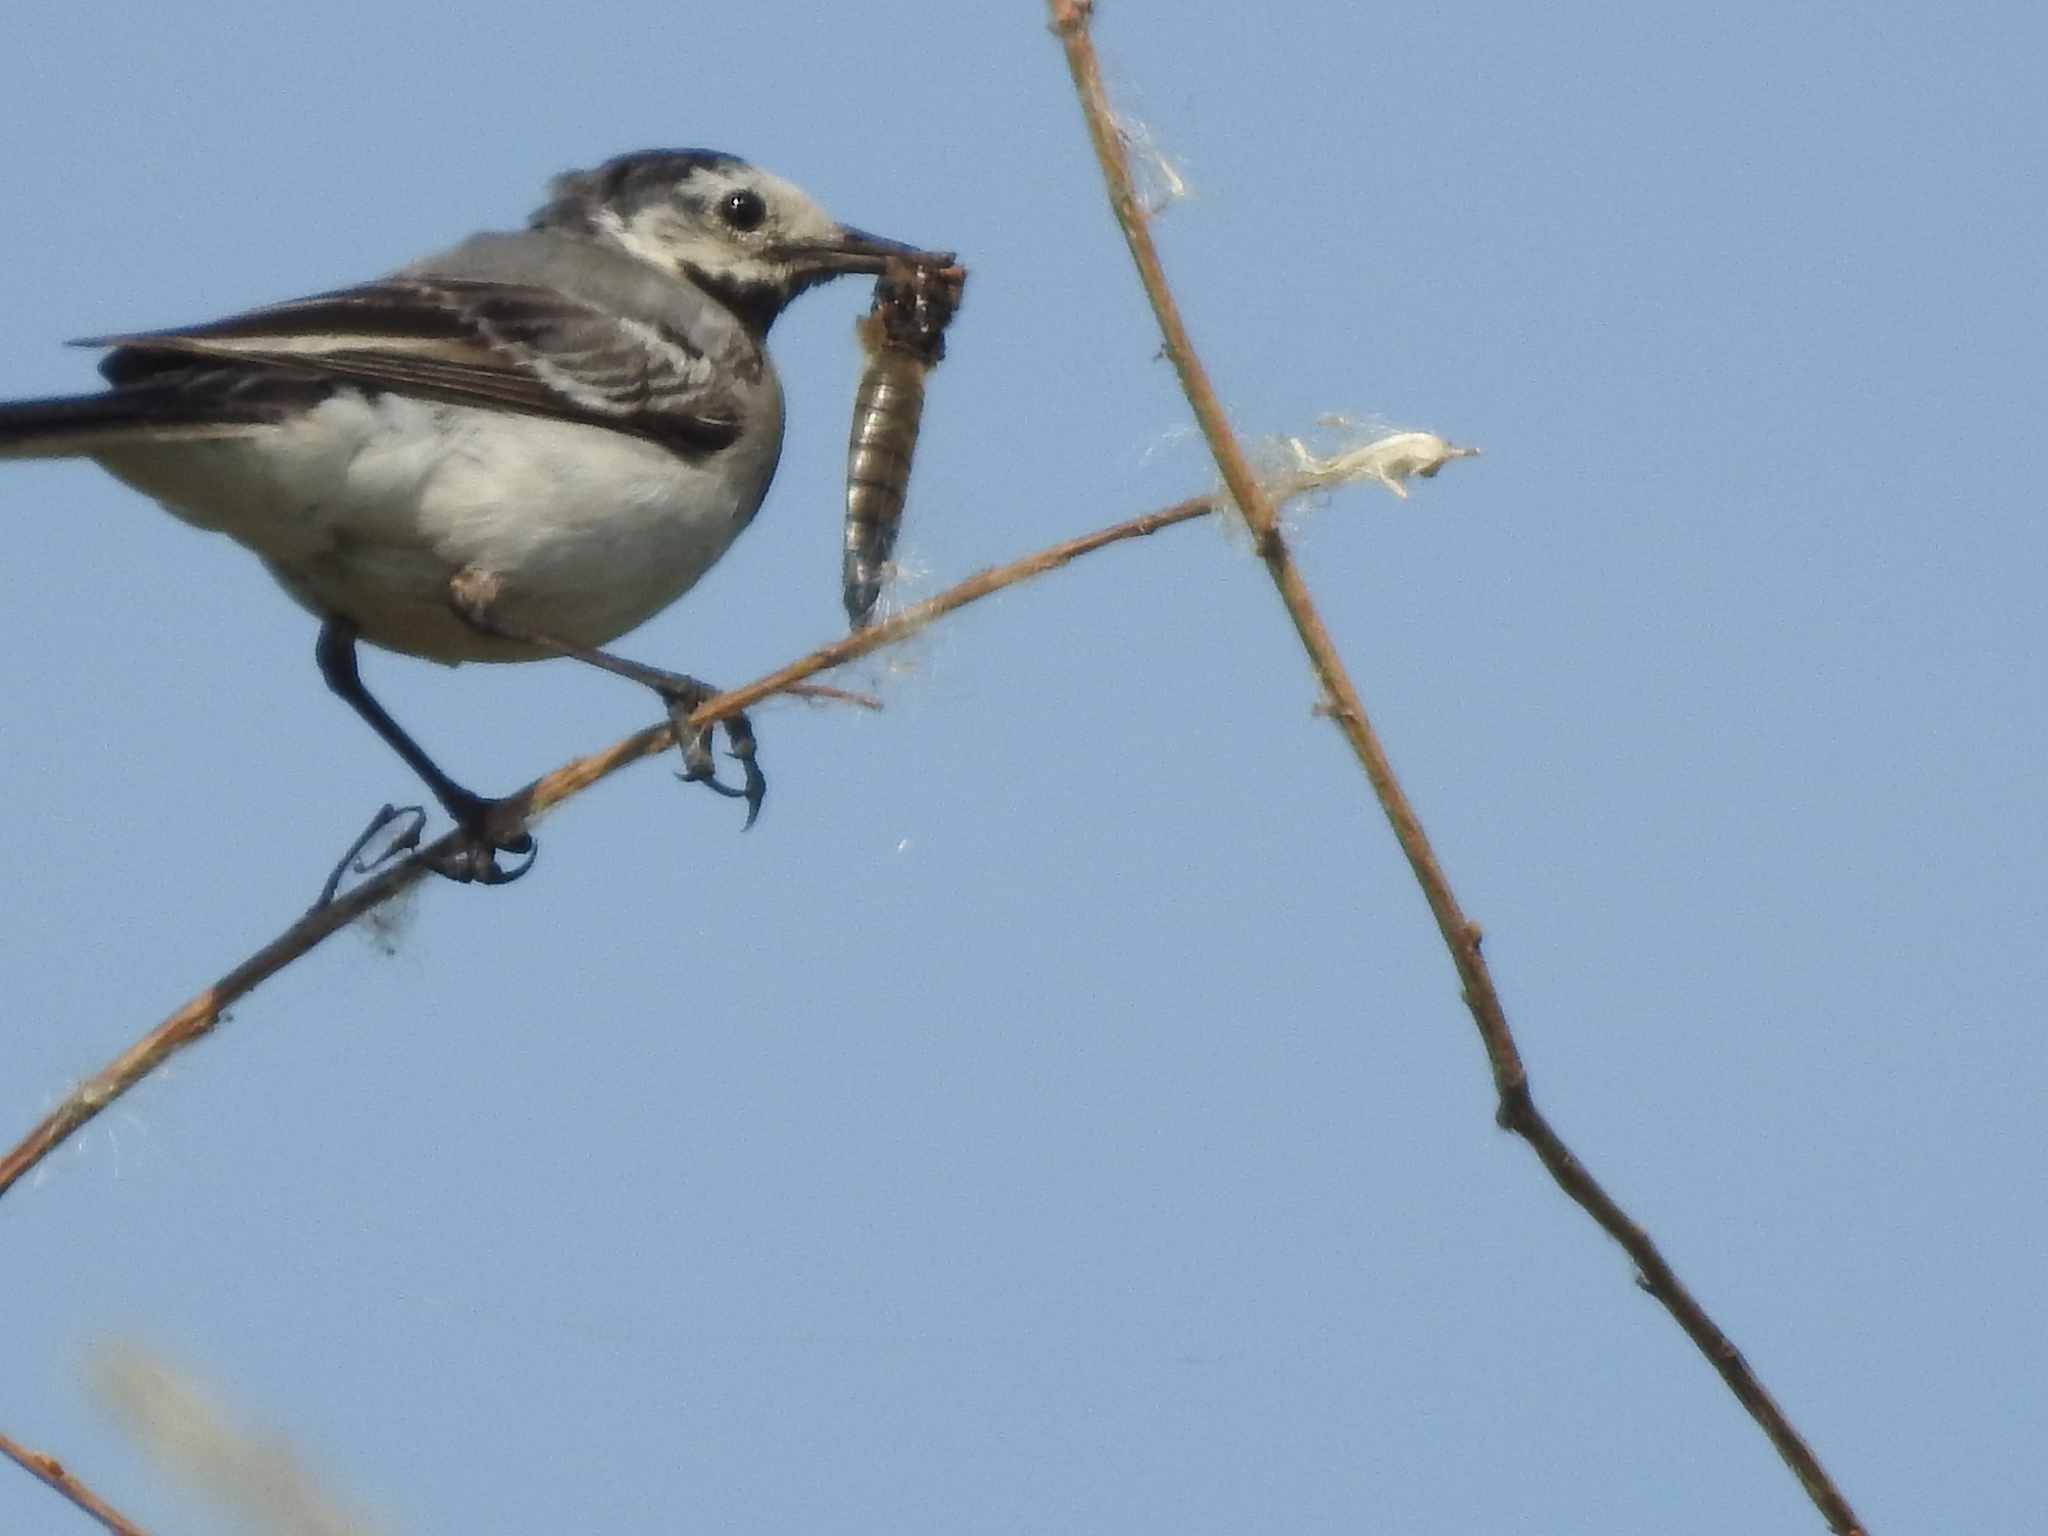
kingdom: Animalia
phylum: Chordata
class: Aves
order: Passeriformes
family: Motacillidae
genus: Motacilla
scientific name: Motacilla alba
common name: White wagtail
